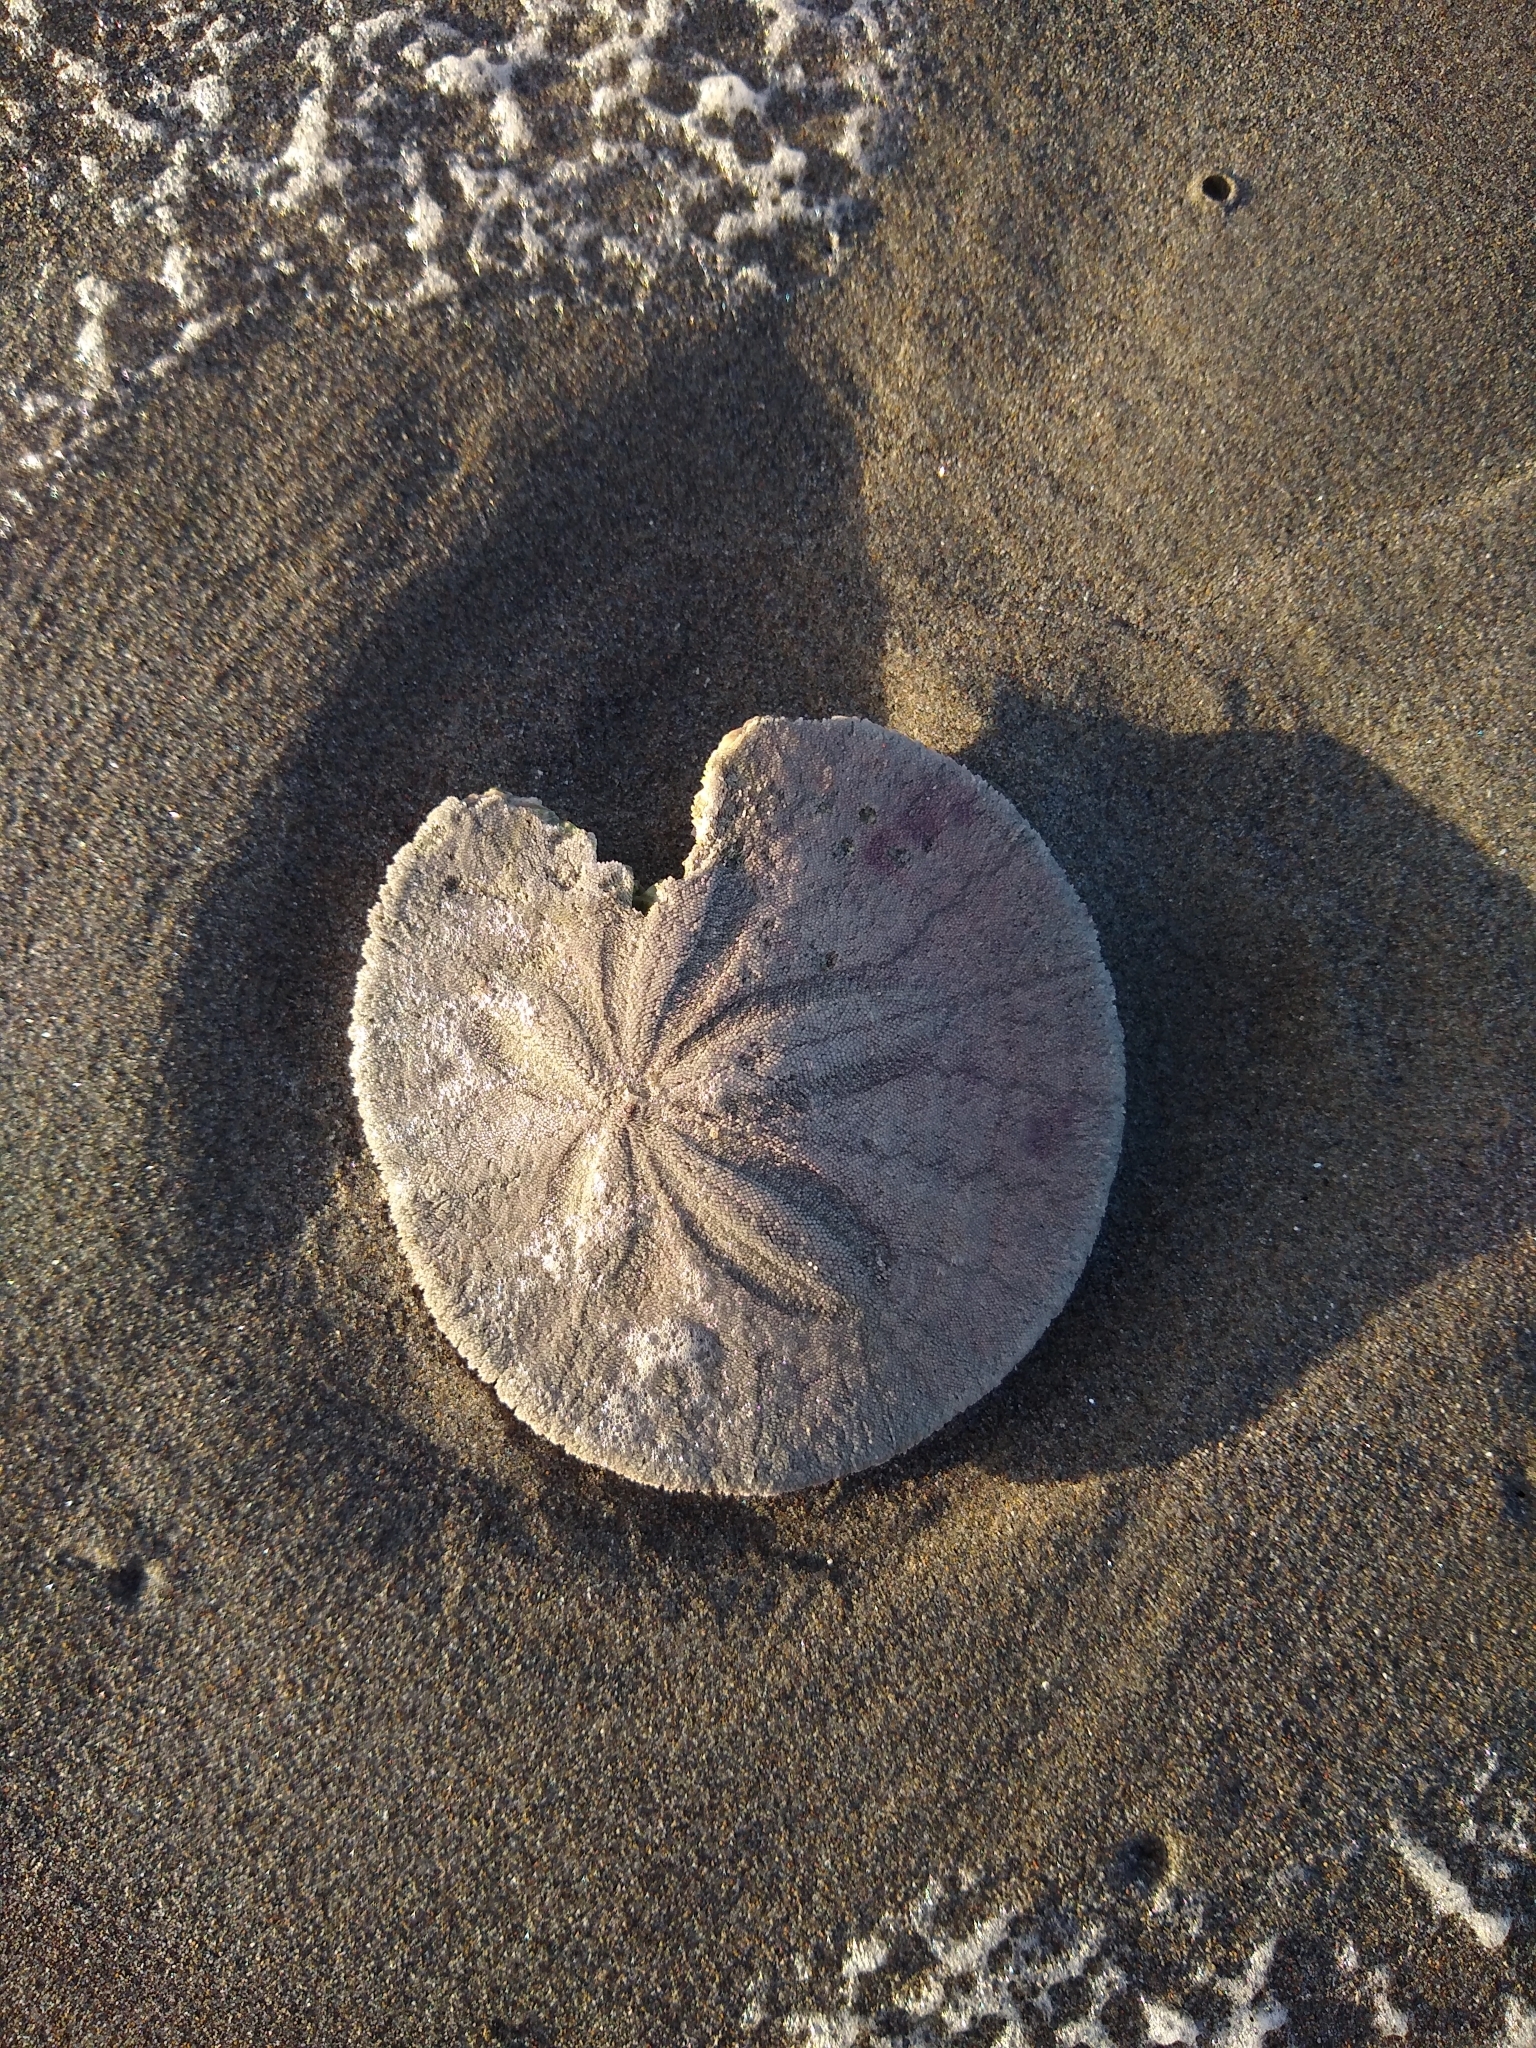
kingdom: Animalia
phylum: Echinodermata
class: Echinoidea
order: Echinolampadacea
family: Dendrasteridae
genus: Dendraster
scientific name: Dendraster excentricus
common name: Eccentric sand dollar sea urchin
